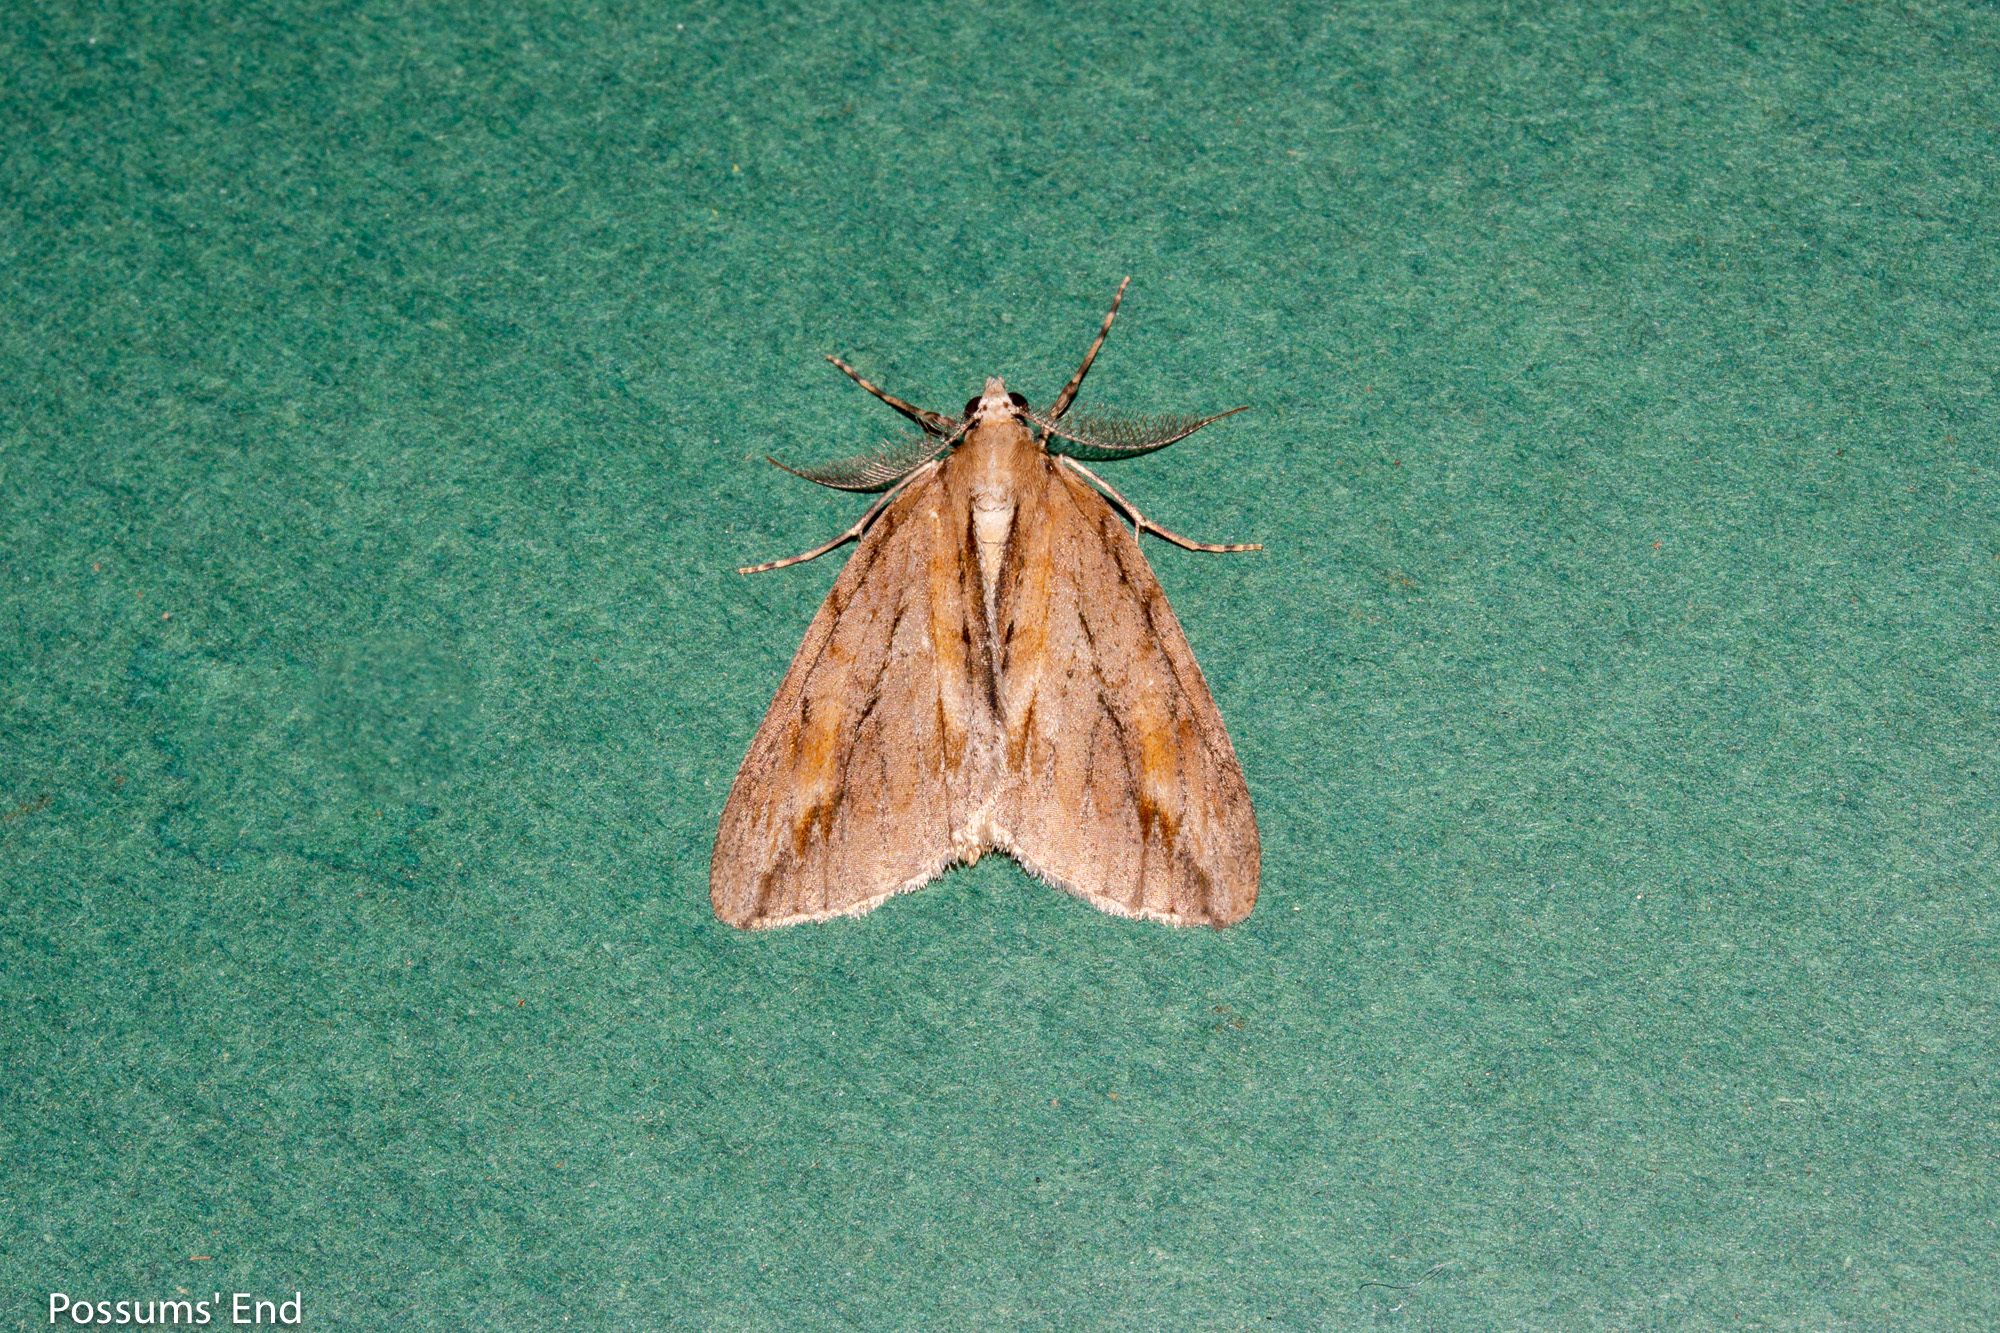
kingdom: Animalia
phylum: Arthropoda
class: Insecta
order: Lepidoptera
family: Geometridae
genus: Pseudocoremia
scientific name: Pseudocoremia lupinata
